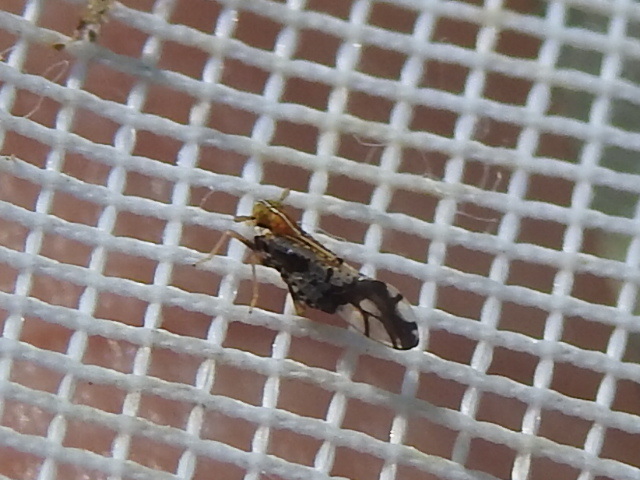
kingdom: Animalia
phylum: Arthropoda
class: Insecta
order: Hemiptera
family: Delphacidae
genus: Liburniella
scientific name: Liburniella ornata
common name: Ornate planthopper
